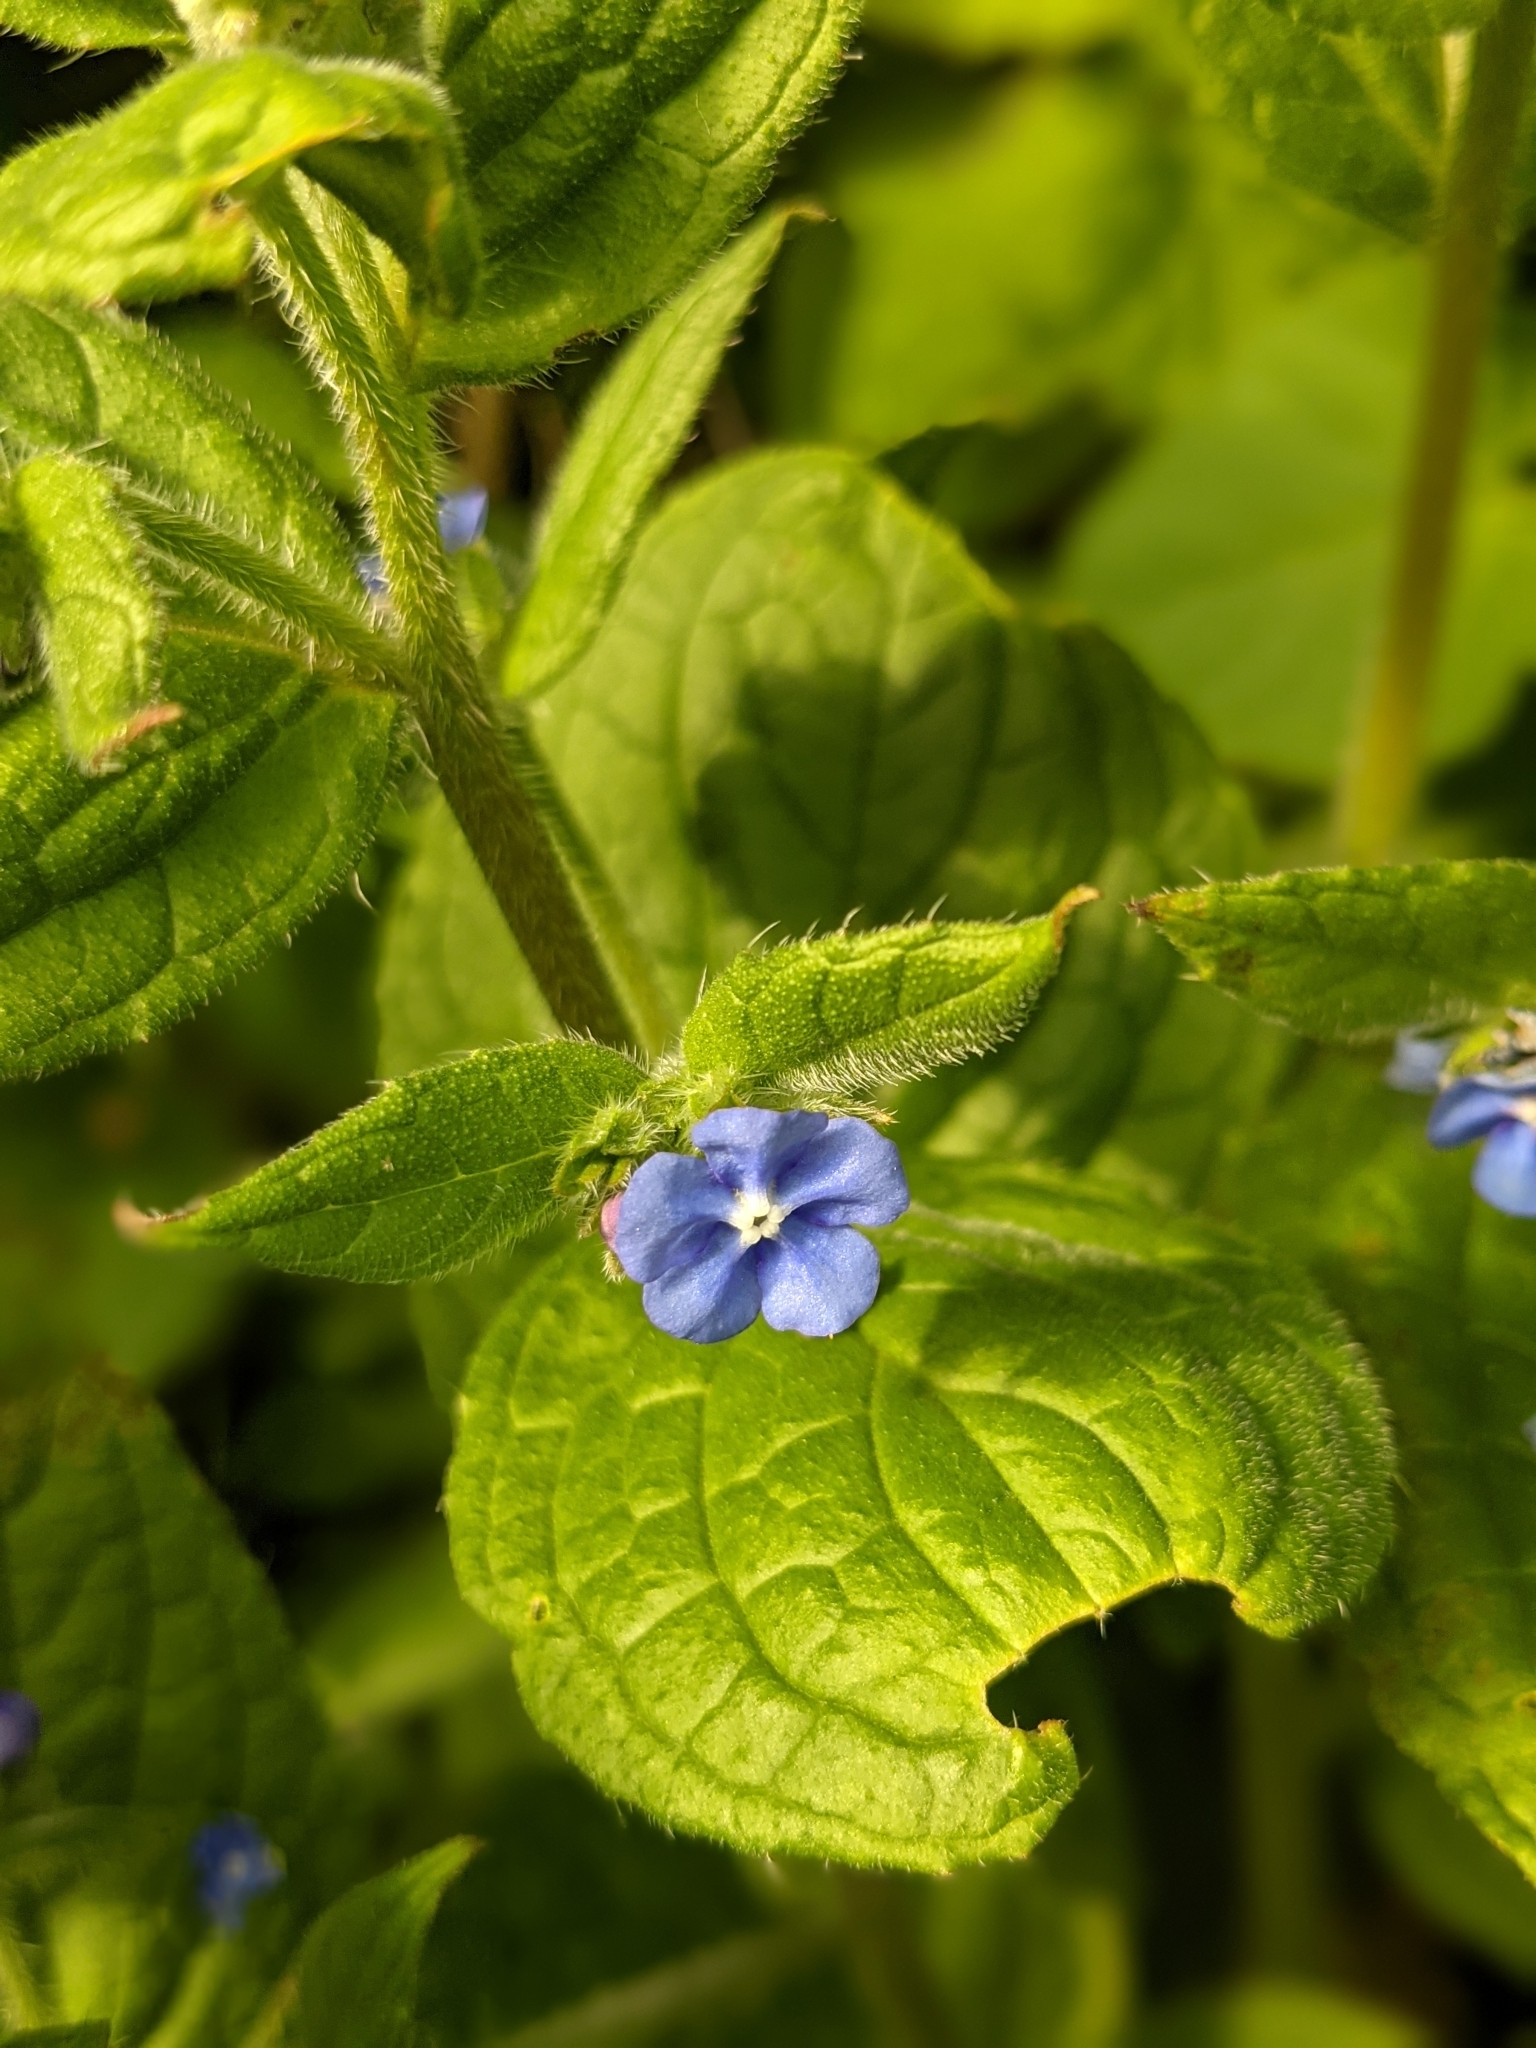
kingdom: Plantae
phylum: Tracheophyta
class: Magnoliopsida
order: Boraginales
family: Boraginaceae
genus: Pentaglottis
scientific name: Pentaglottis sempervirens
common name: Green alkanet
